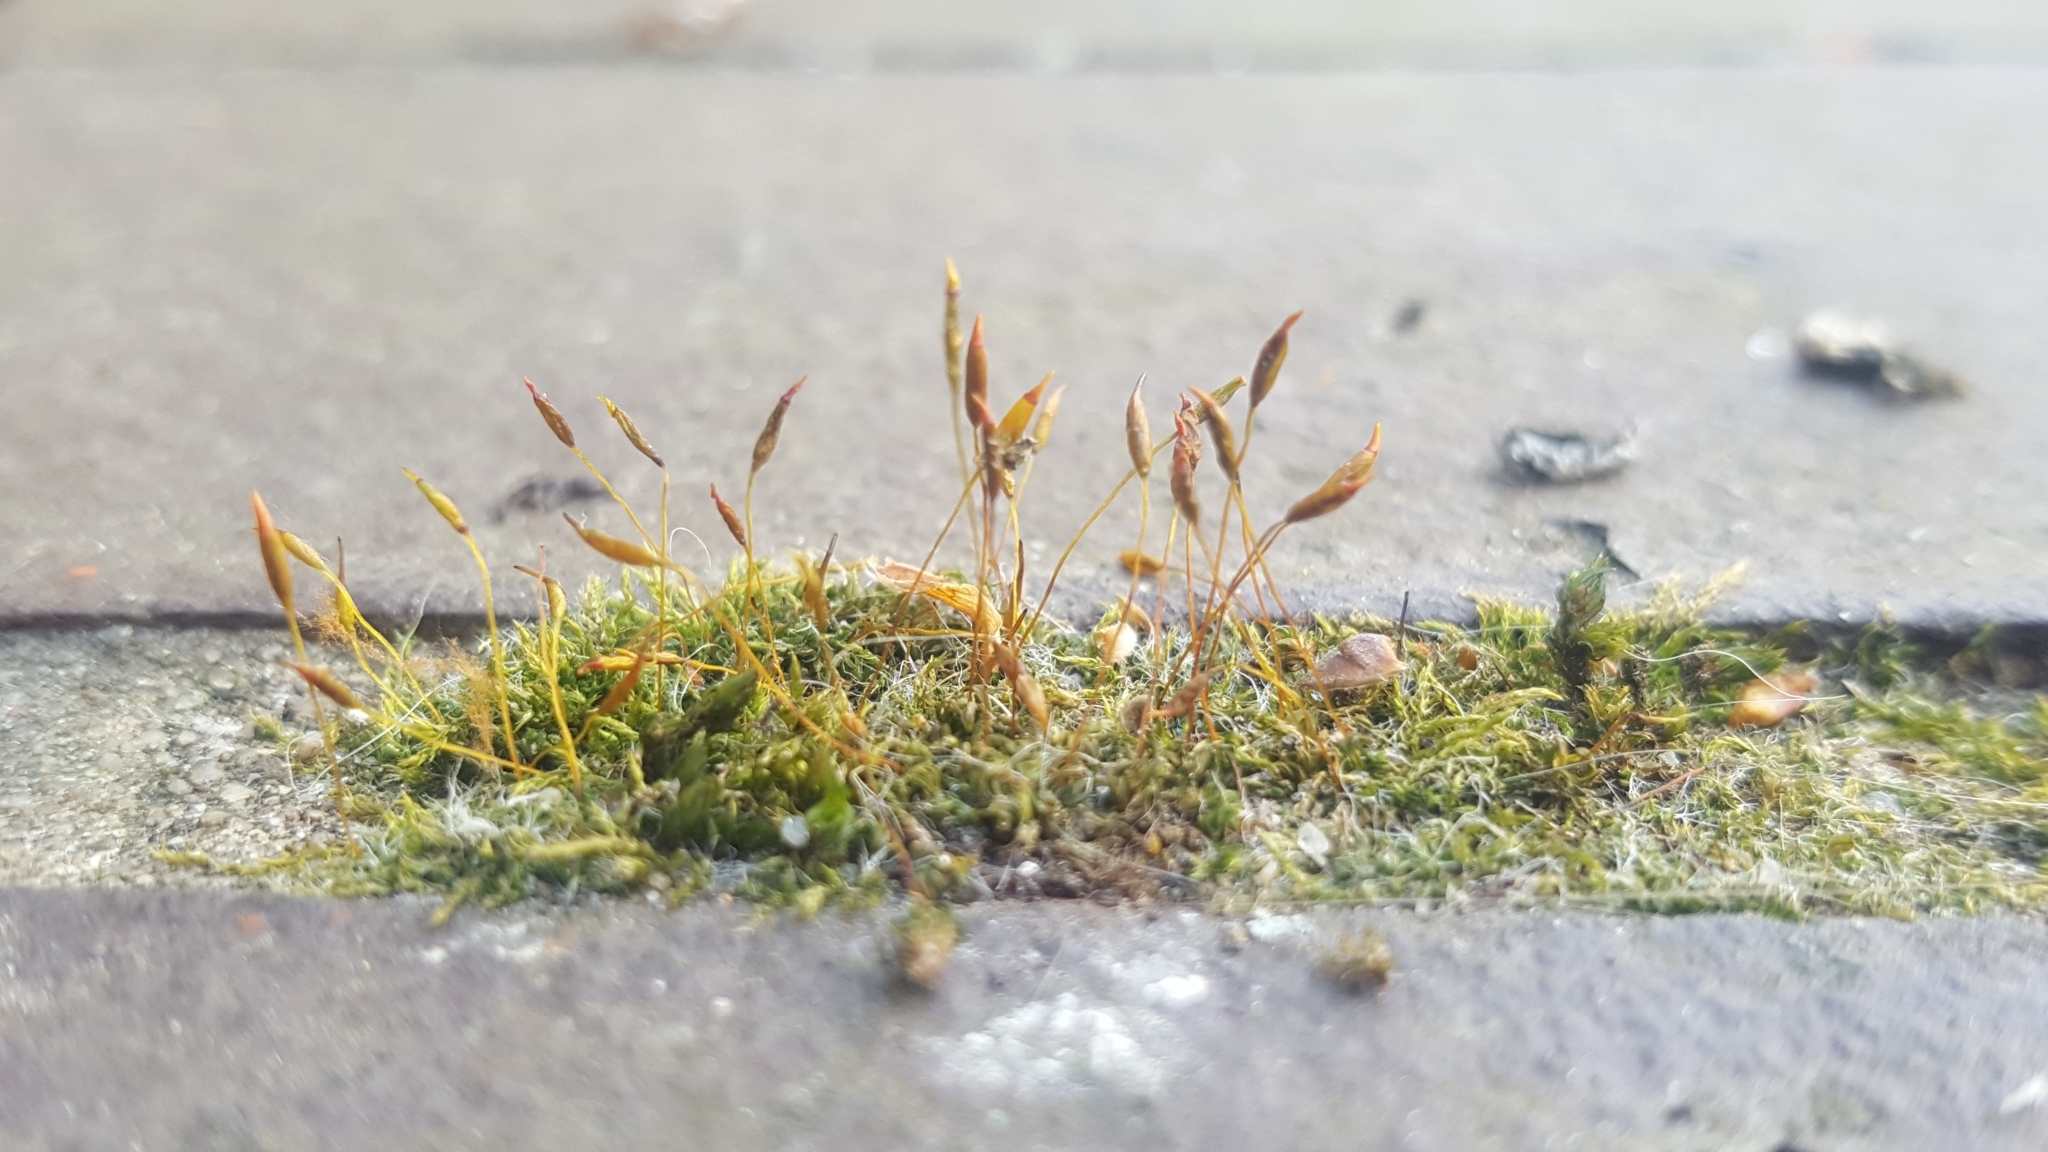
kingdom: Plantae
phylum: Bryophyta
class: Bryopsida
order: Pottiales
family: Pottiaceae
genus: Tortula
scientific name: Tortula muralis
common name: Wall screw-moss
